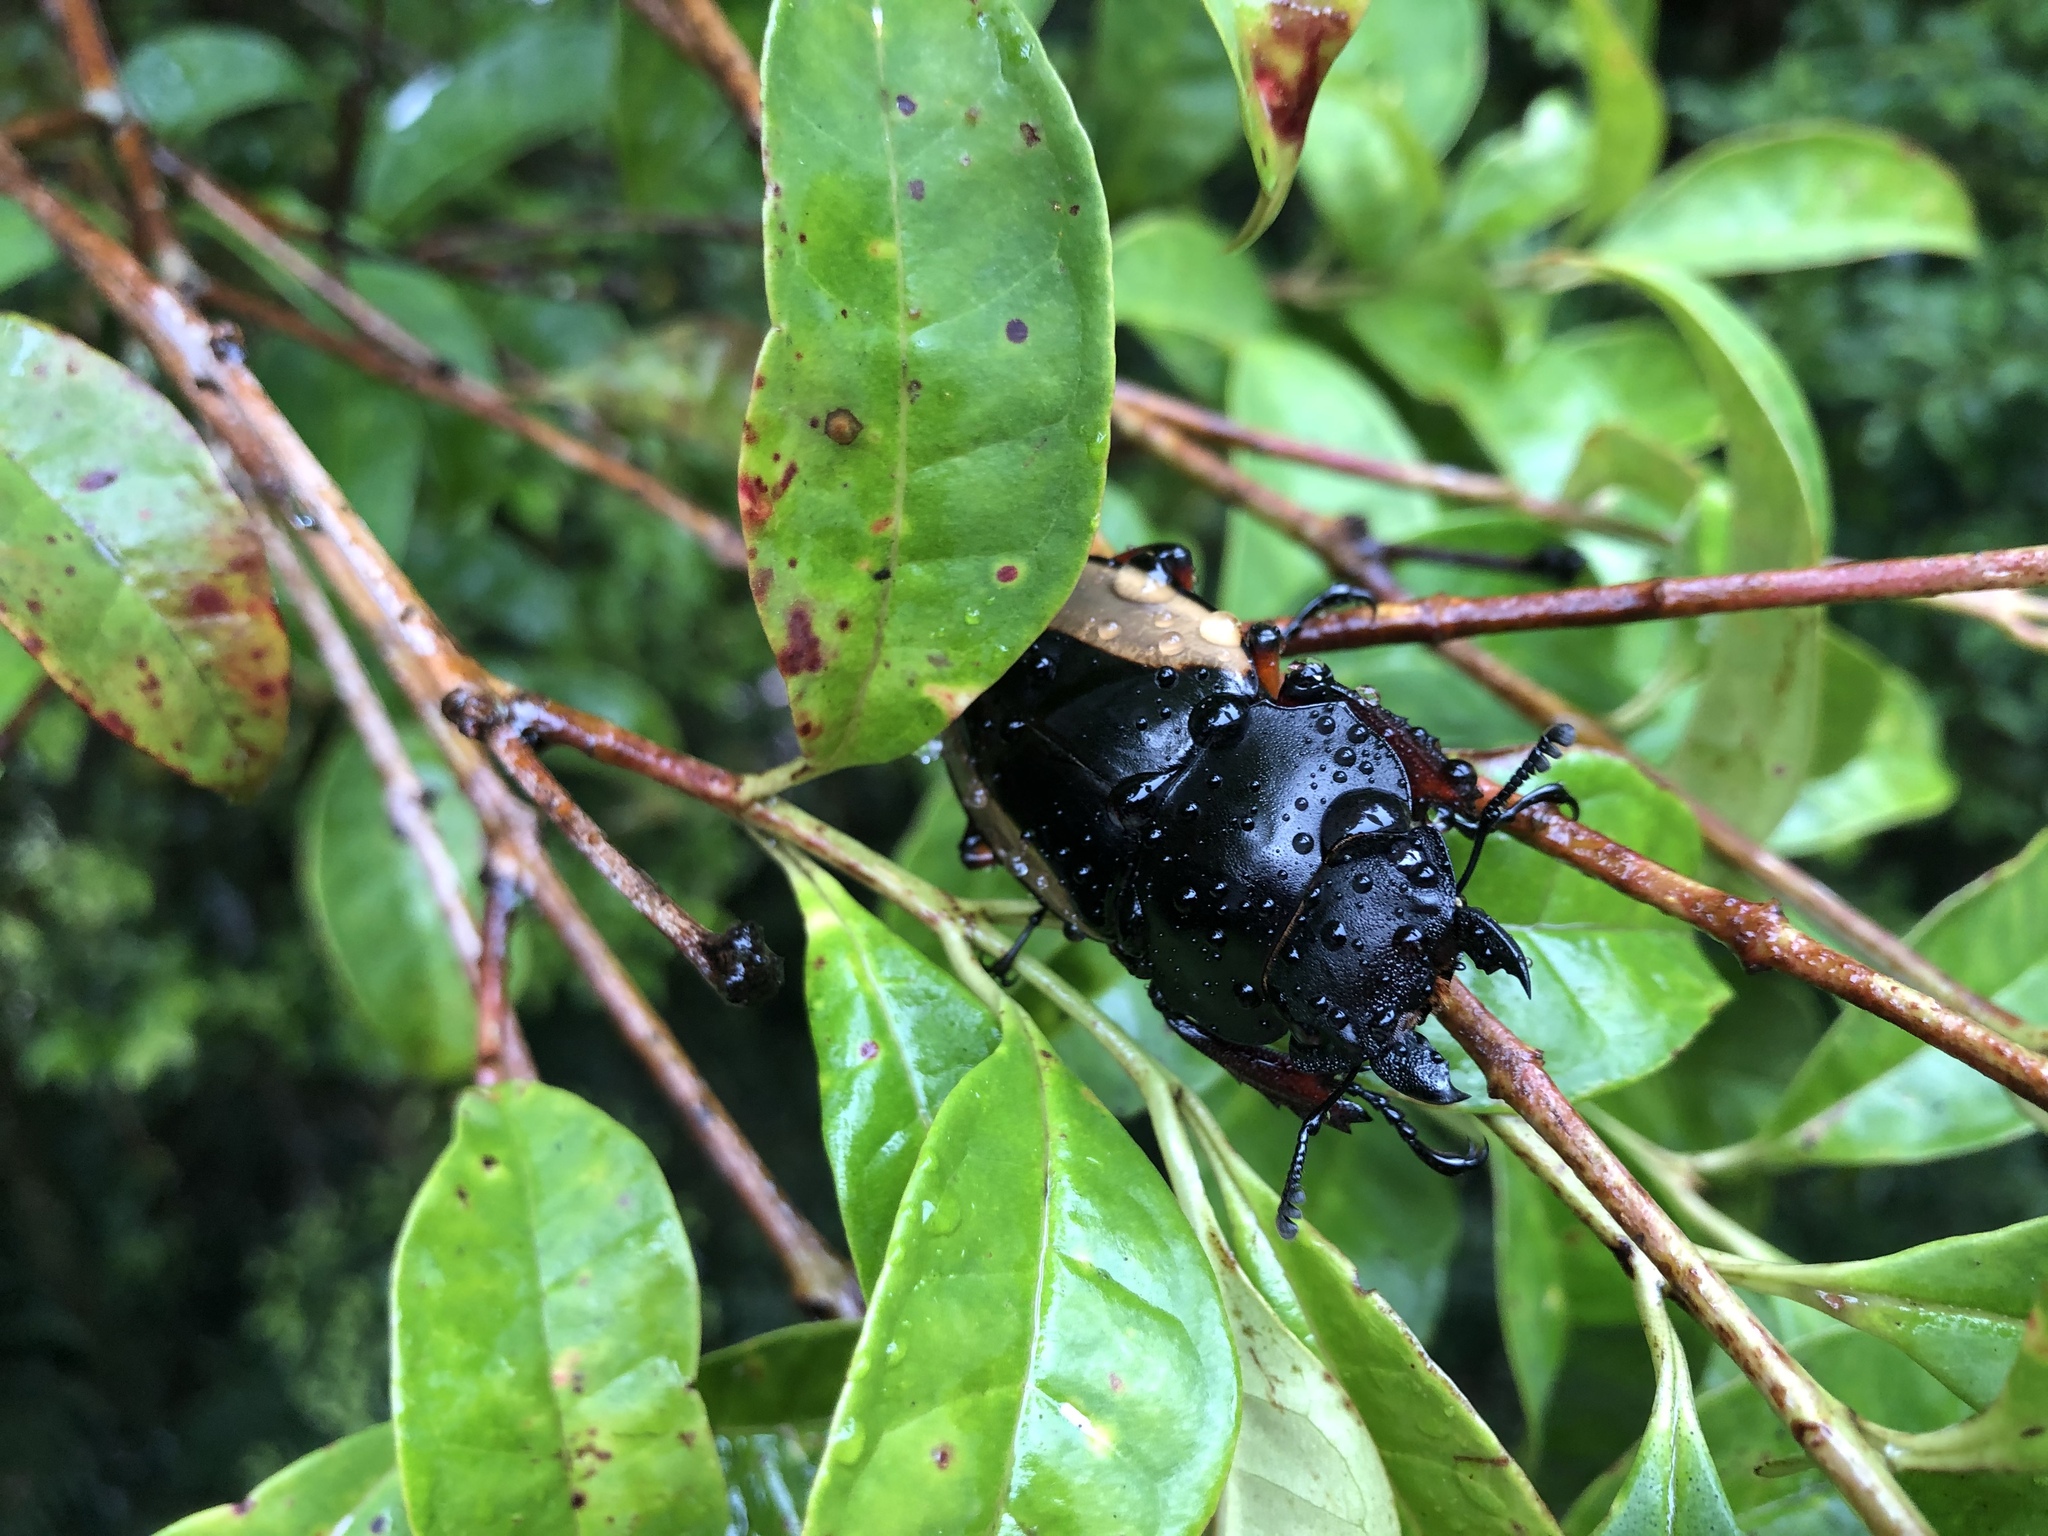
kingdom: Animalia
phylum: Arthropoda
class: Insecta
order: Coleoptera
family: Lucanidae
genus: Odontolabis
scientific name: Odontolabis femoralis
